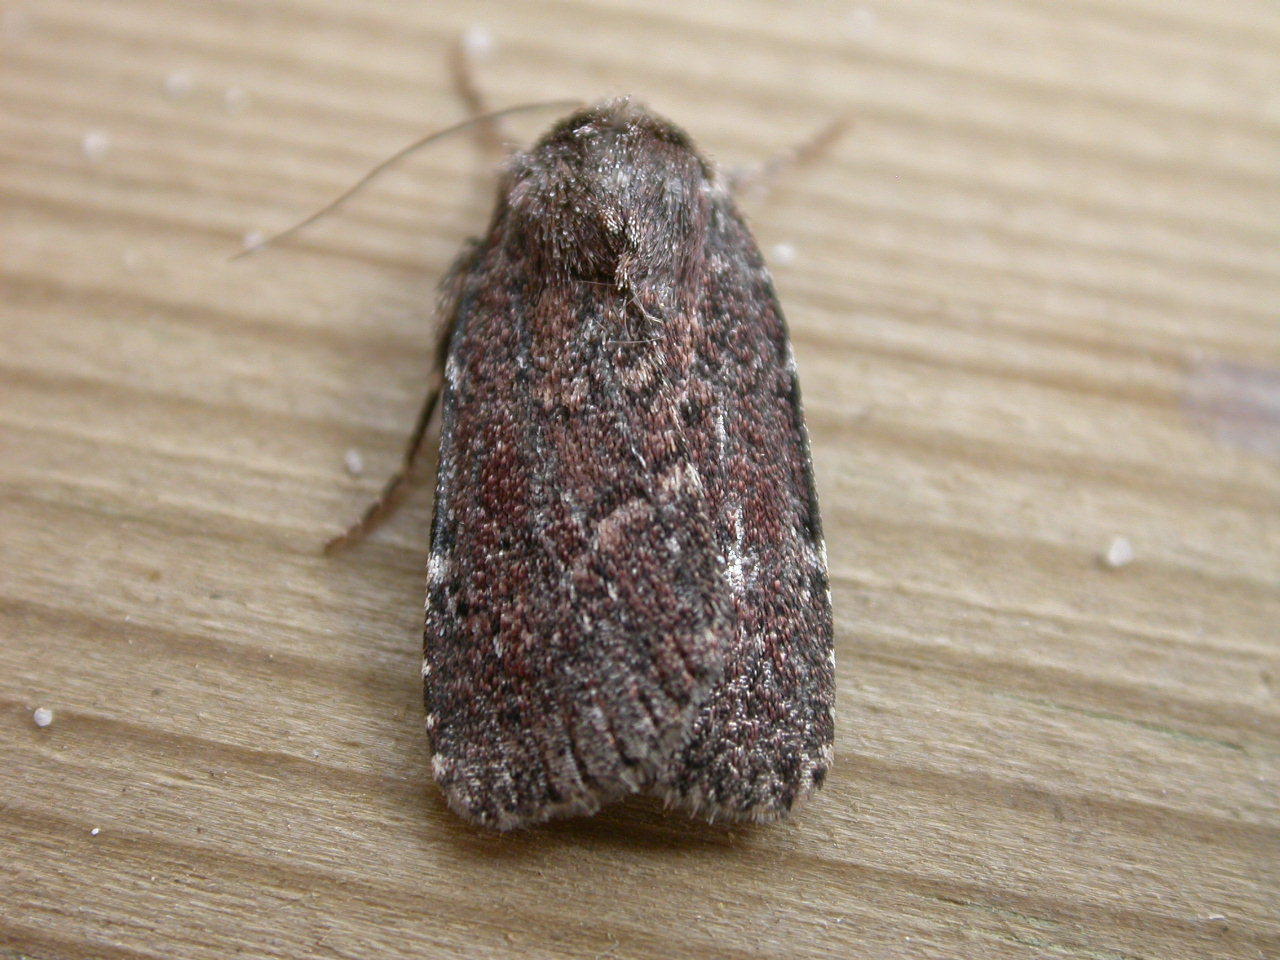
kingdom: Animalia
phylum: Arthropoda
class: Insecta
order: Lepidoptera
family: Noctuidae
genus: Lycophotia
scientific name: Lycophotia erythrina
